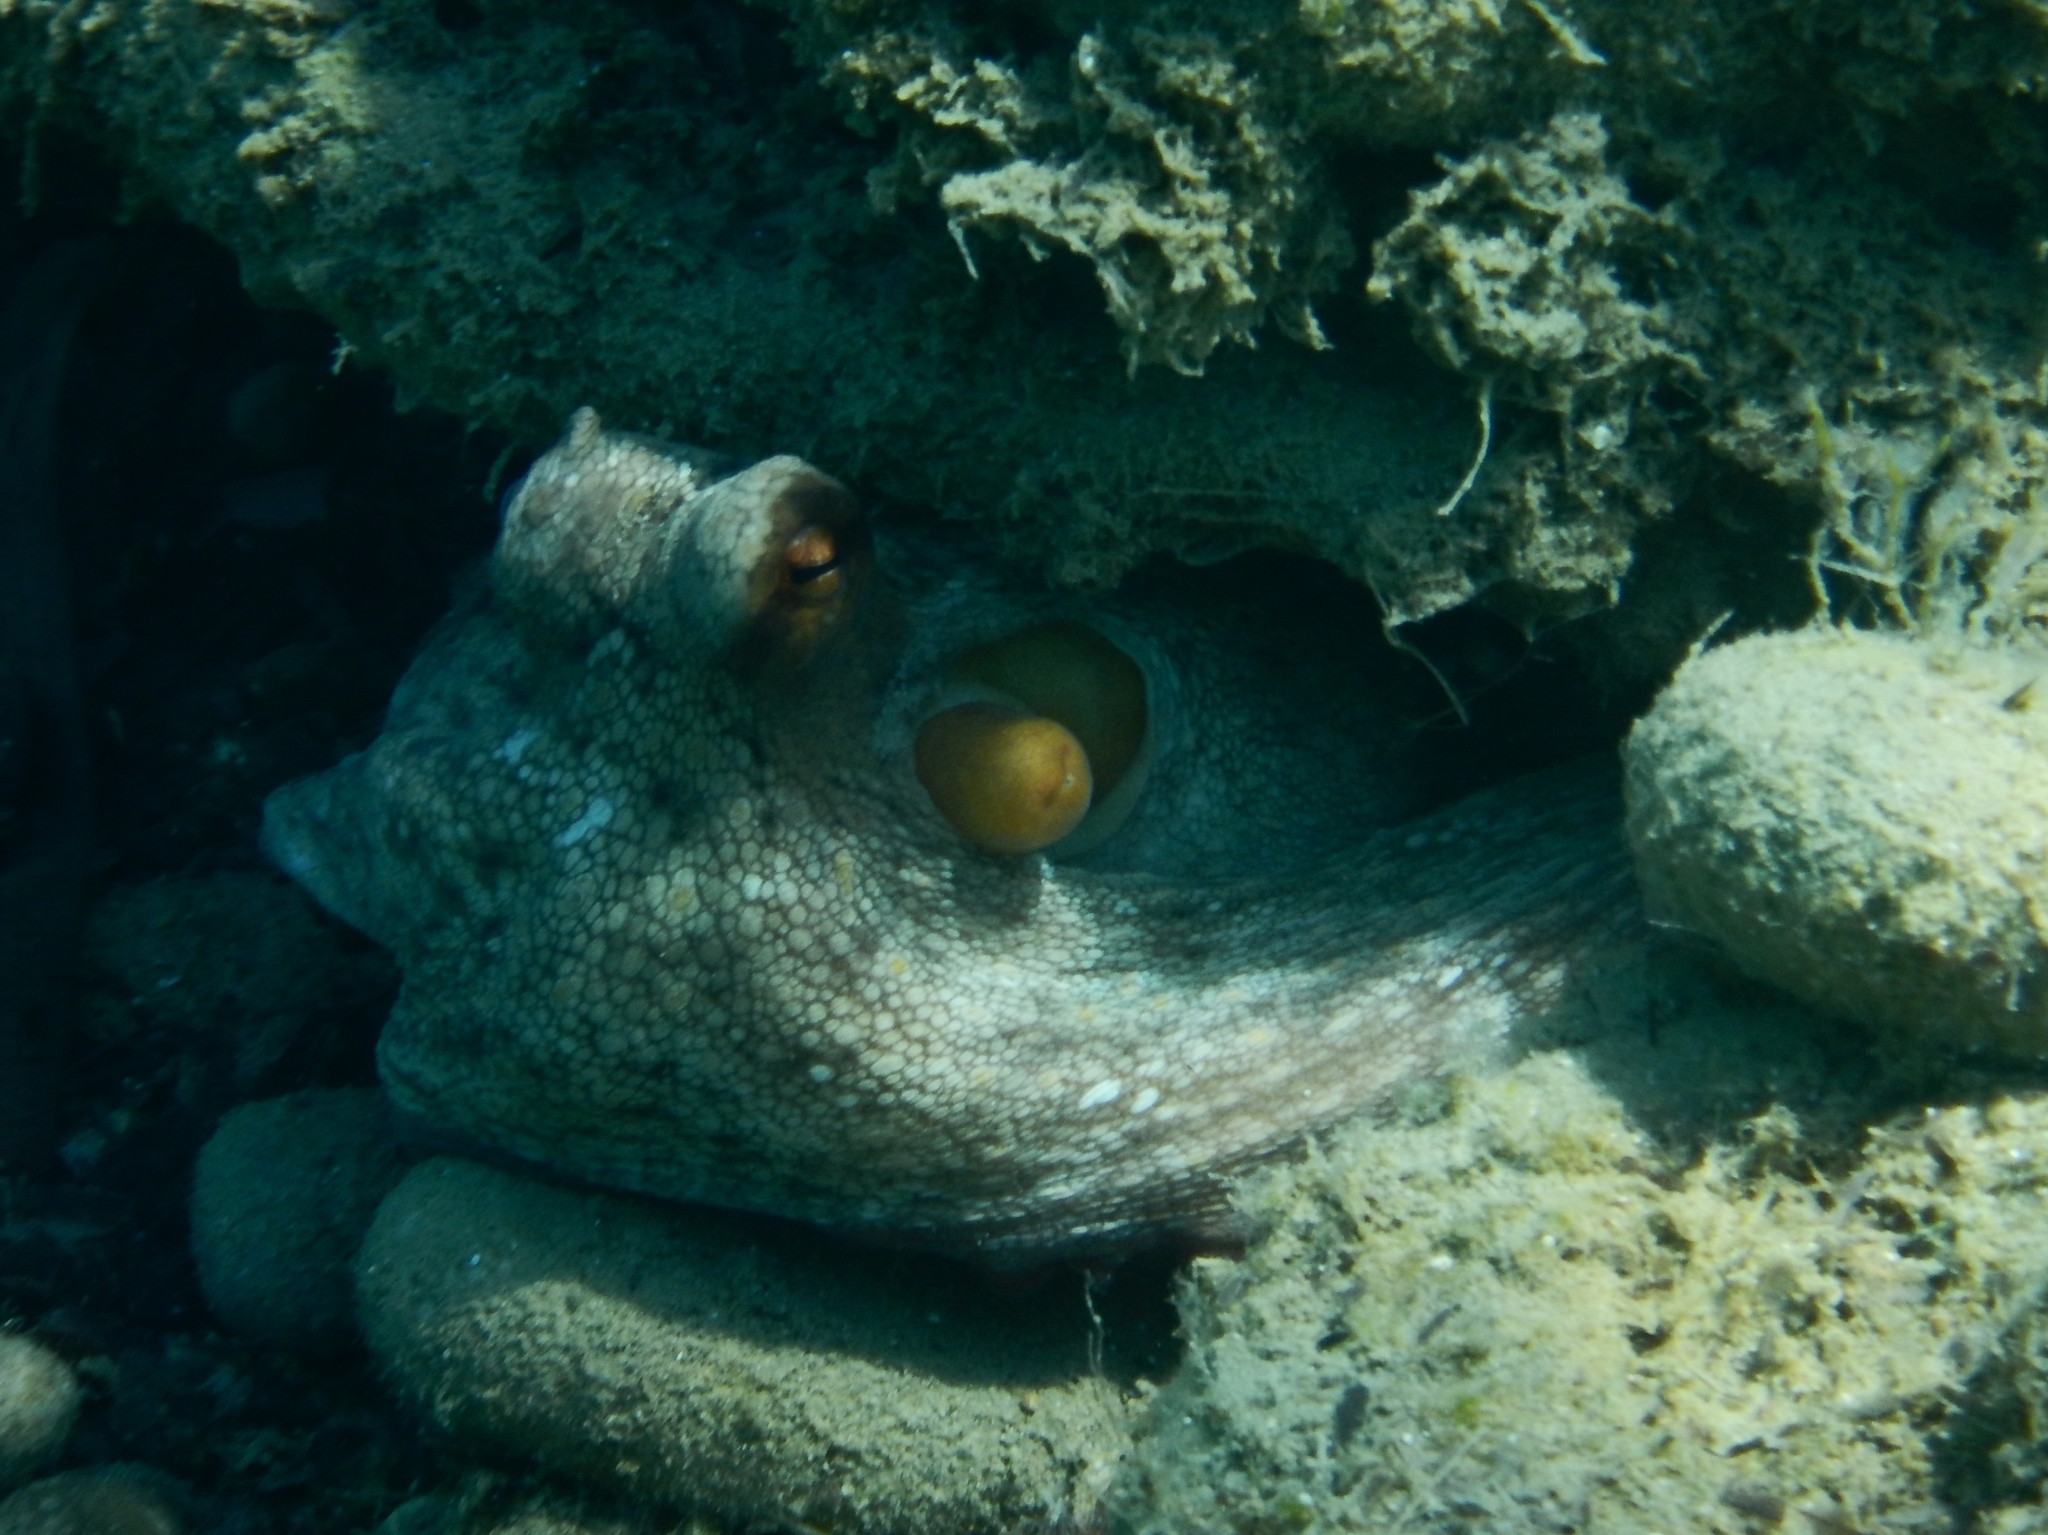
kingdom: Animalia
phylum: Mollusca
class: Cephalopoda
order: Octopoda
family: Octopodidae
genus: Octopus
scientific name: Octopus vulgaris
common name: Common octopus
